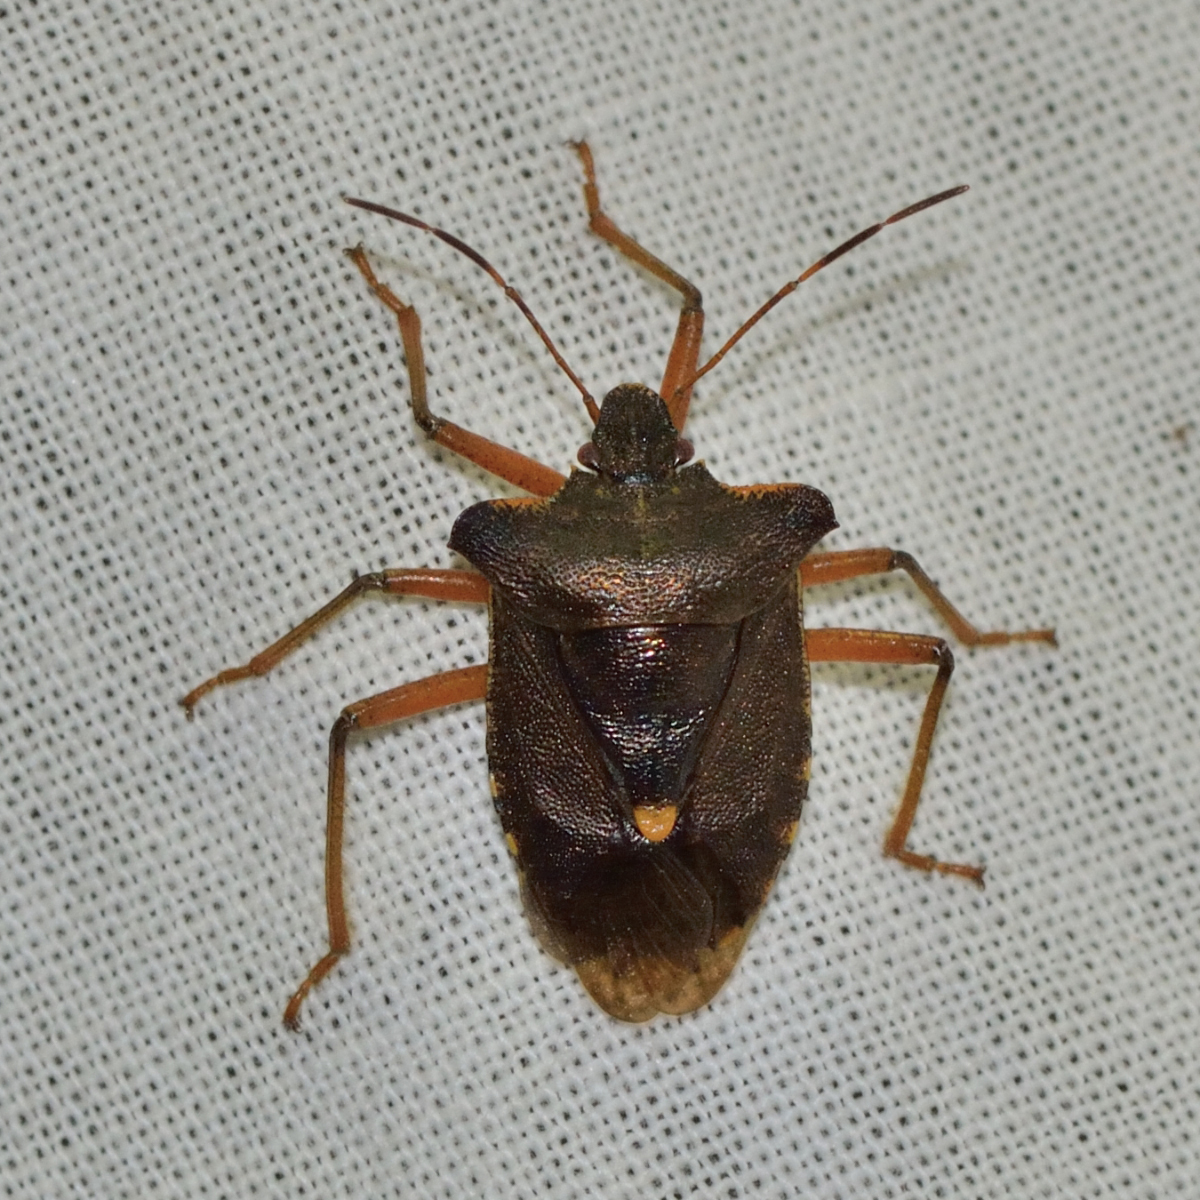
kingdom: Animalia
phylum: Arthropoda
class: Insecta
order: Hemiptera
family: Pentatomidae
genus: Pentatoma
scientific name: Pentatoma rufipes
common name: Forest bug
